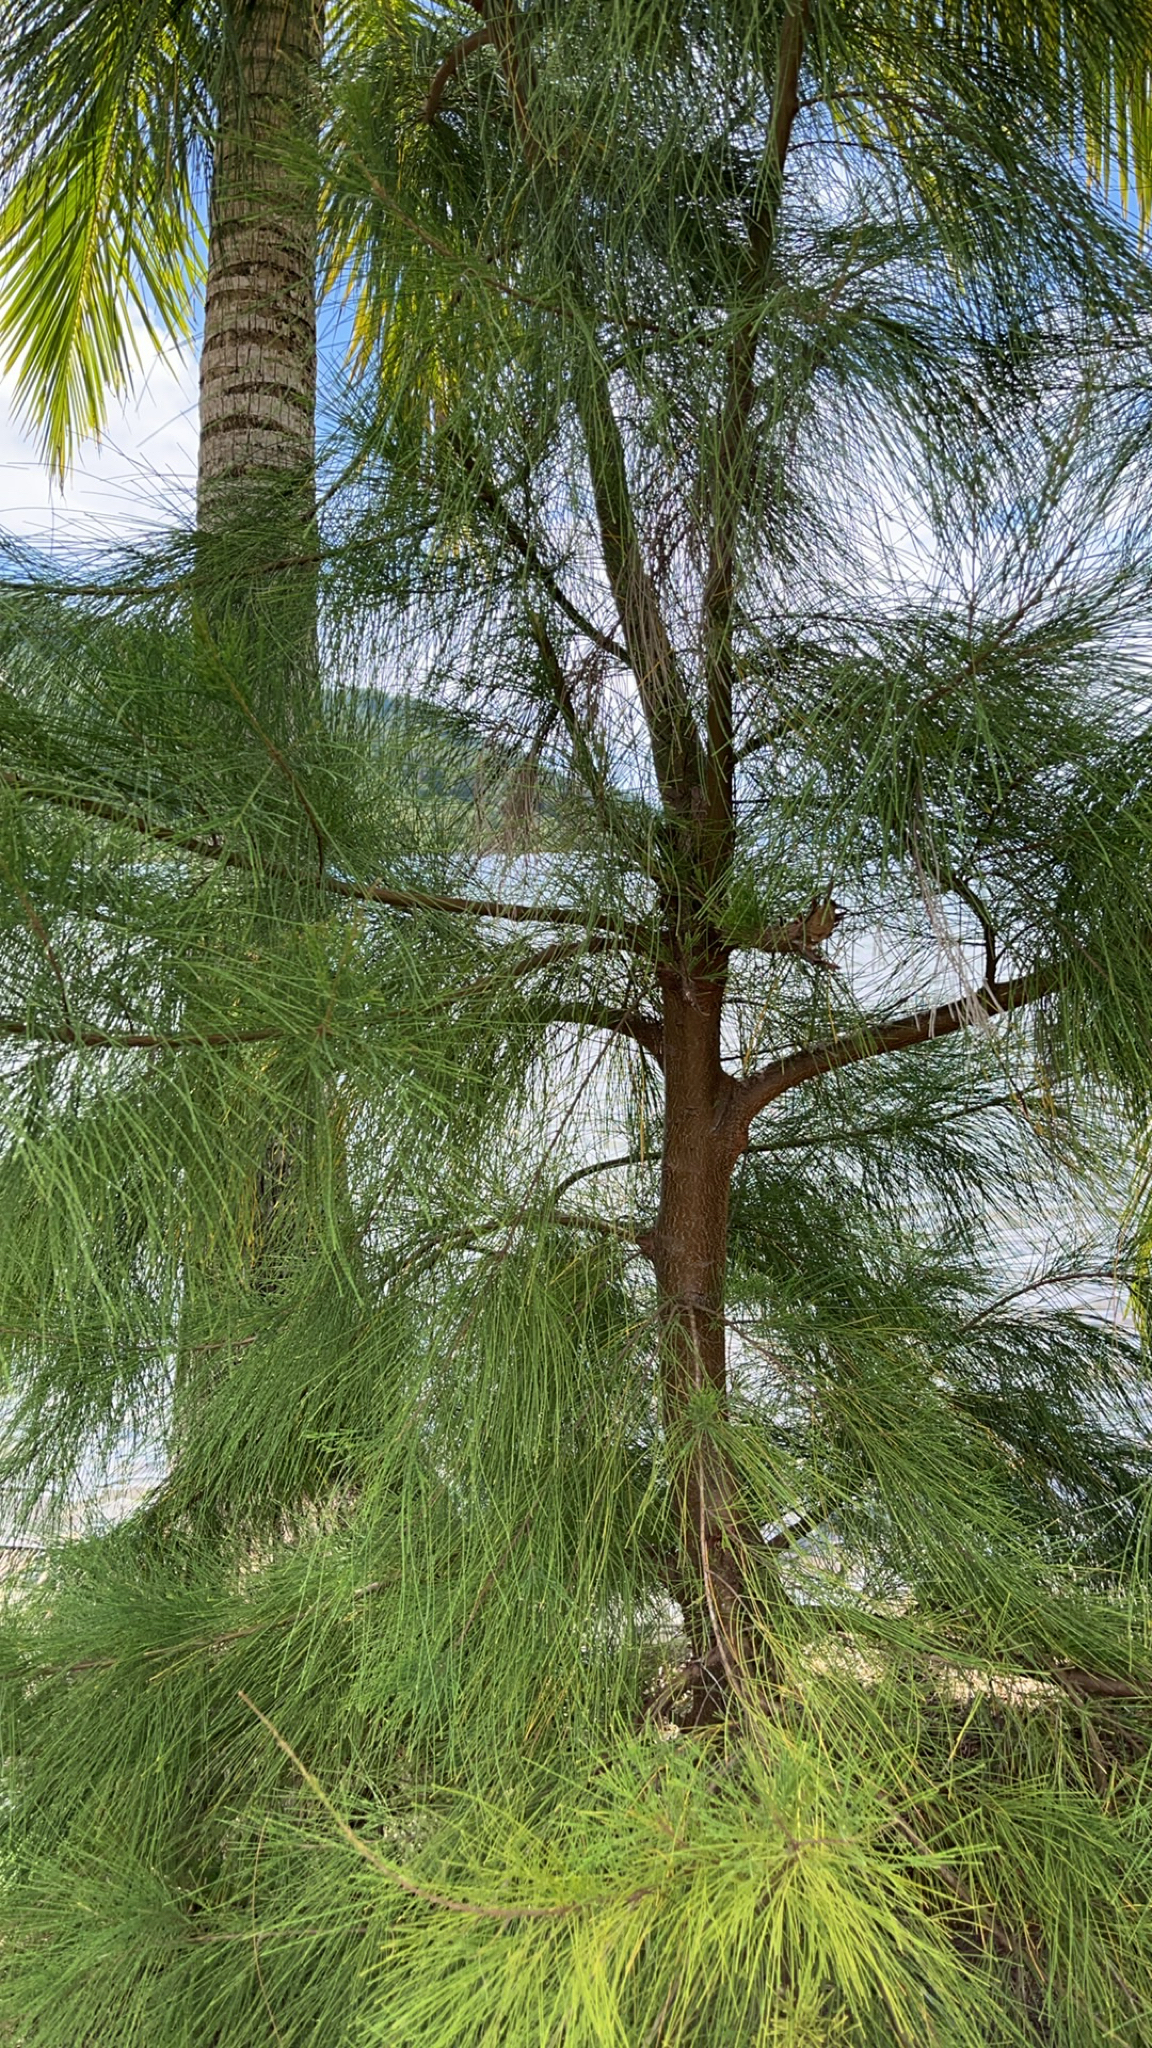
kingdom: Plantae
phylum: Tracheophyta
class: Magnoliopsida
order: Fagales
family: Casuarinaceae
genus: Casuarina
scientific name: Casuarina equisetifolia
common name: Beach sheoak
